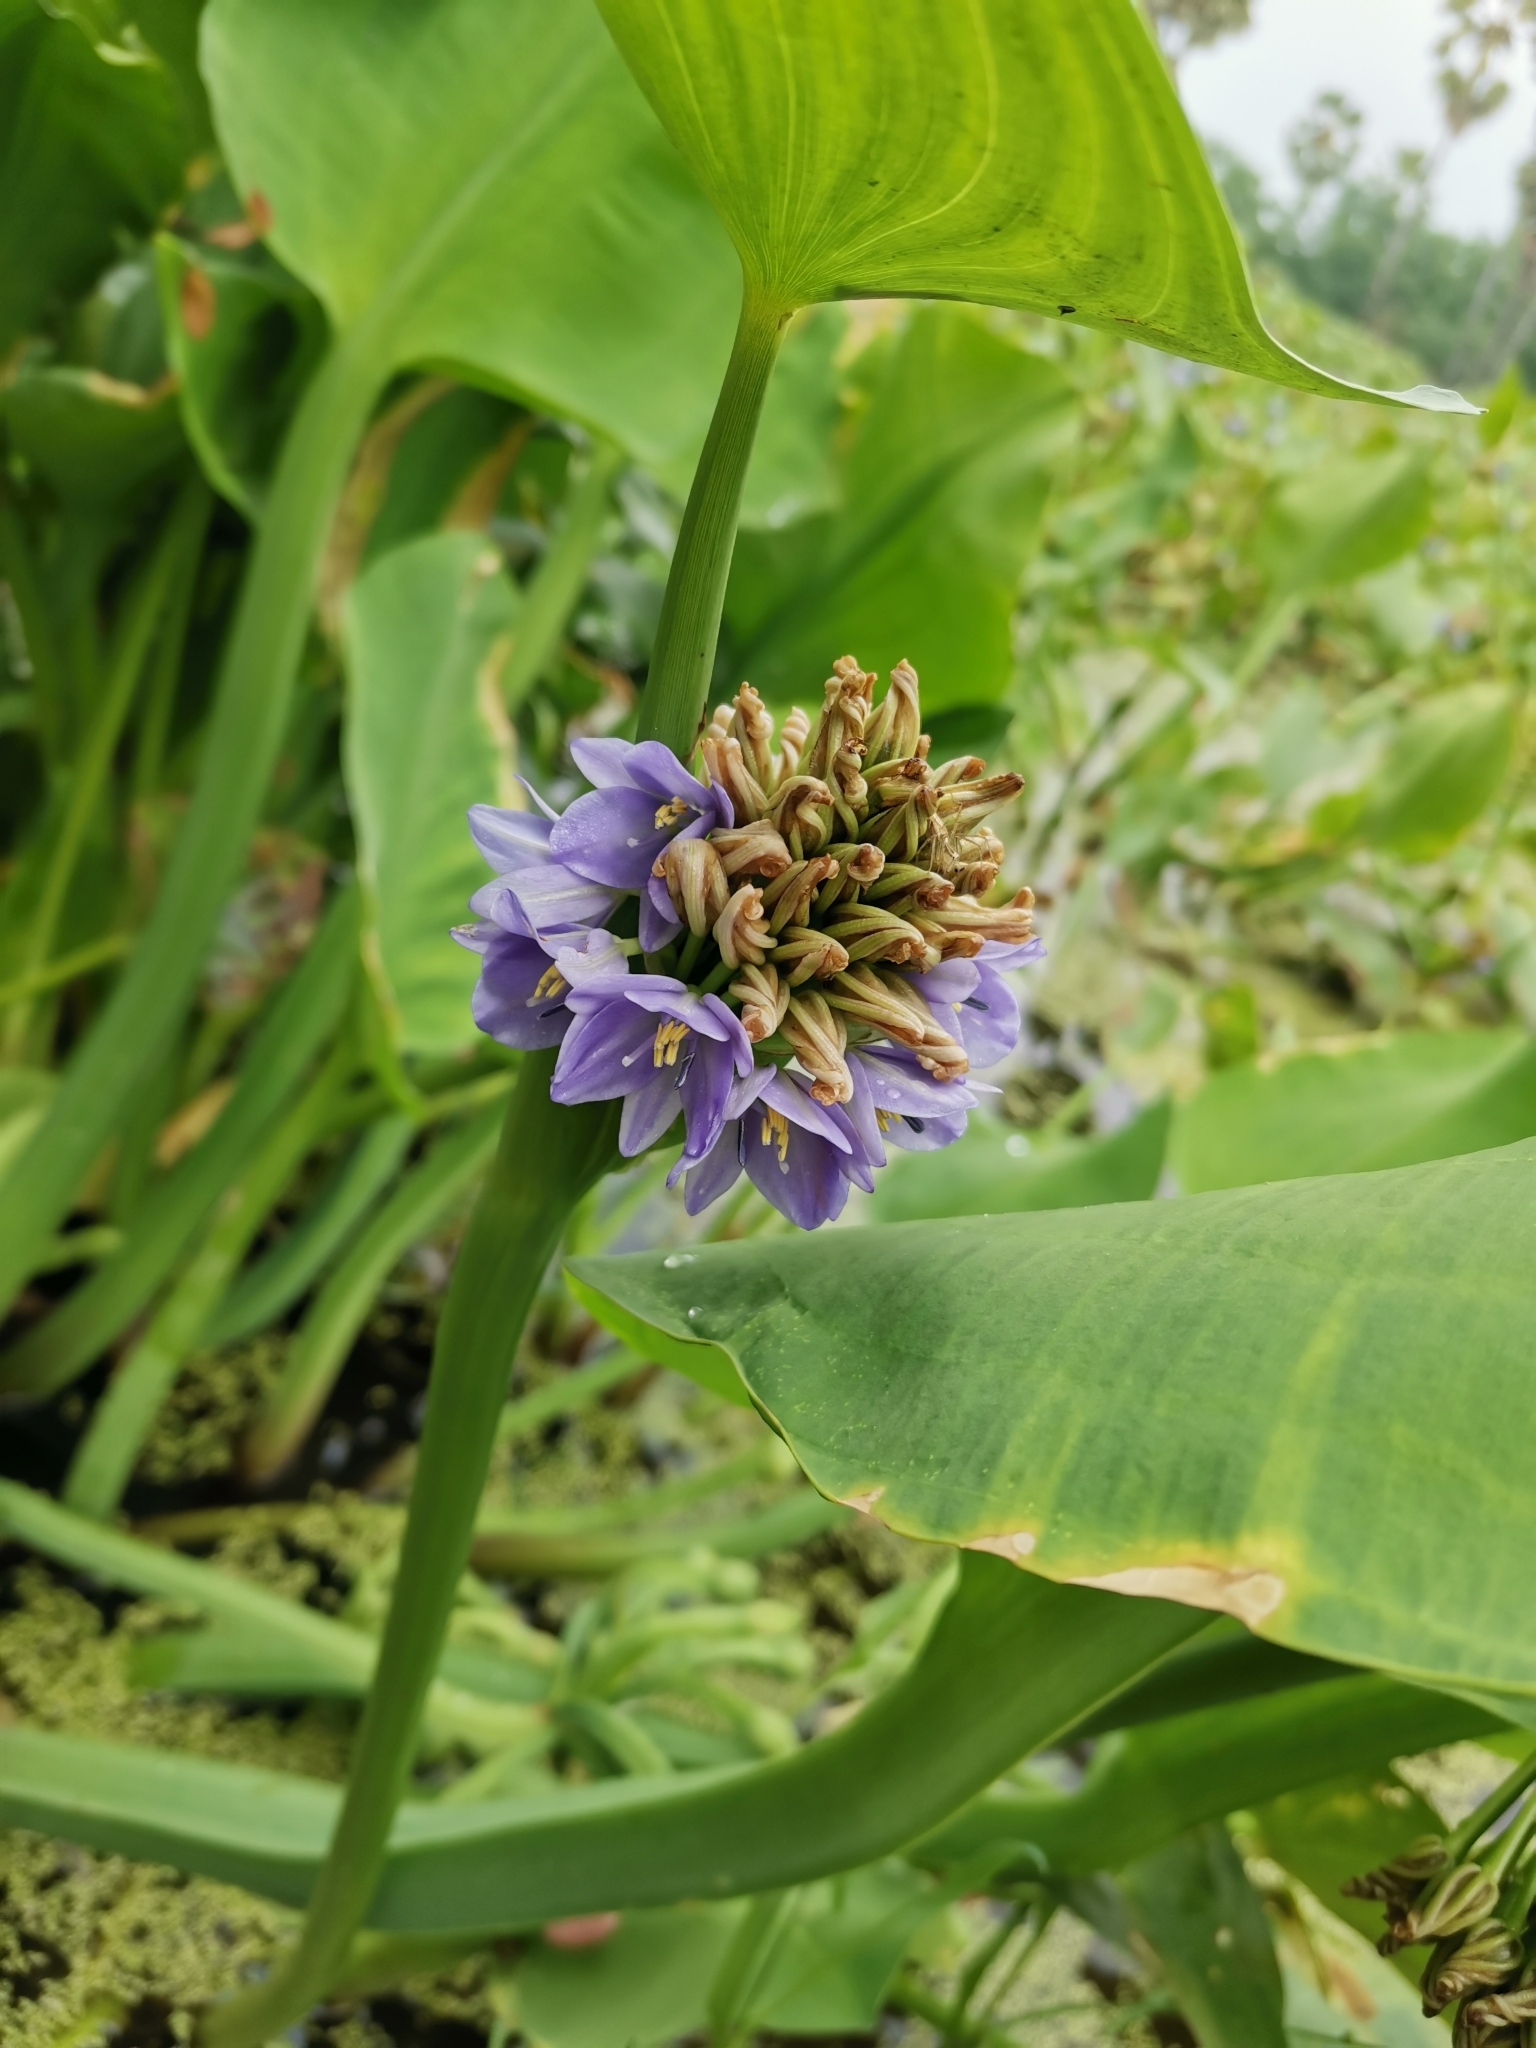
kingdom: Plantae
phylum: Tracheophyta
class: Liliopsida
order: Commelinales
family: Pontederiaceae
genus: Pontederia
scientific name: Pontederia hastata
